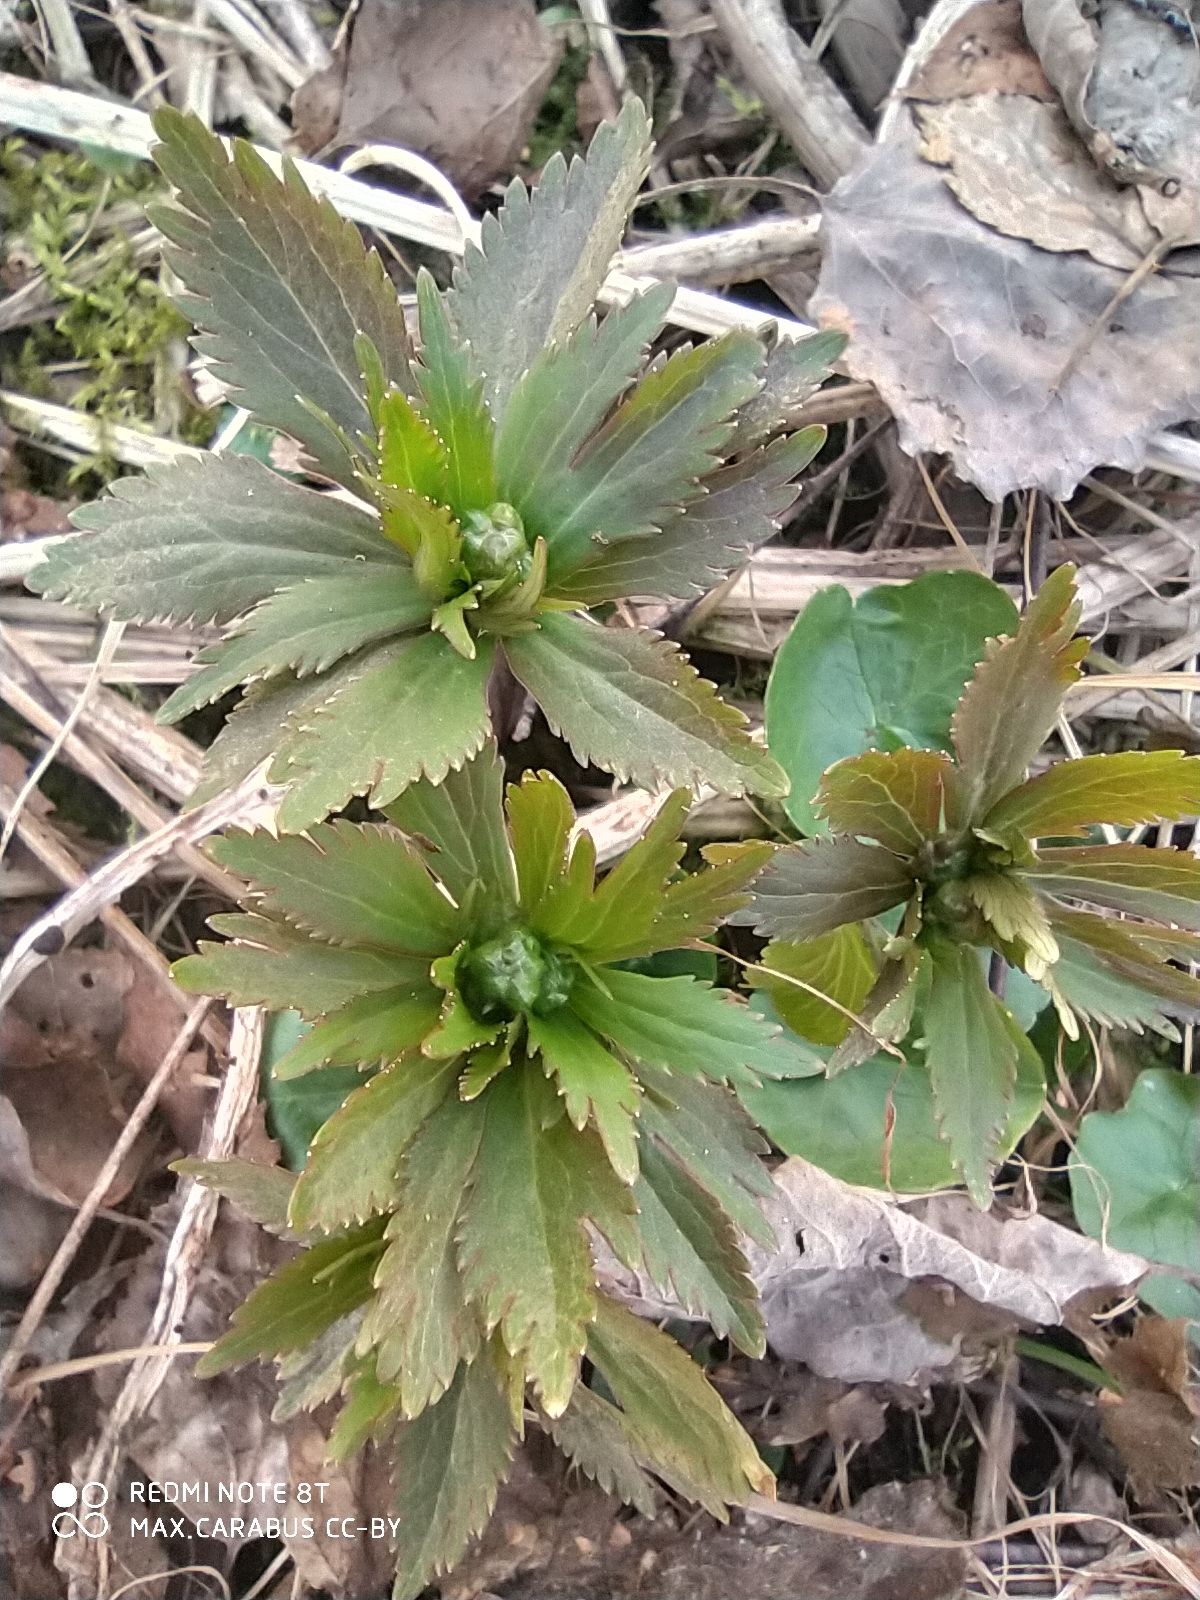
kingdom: Plantae
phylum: Tracheophyta
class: Magnoliopsida
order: Ranunculales
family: Ranunculaceae
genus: Ranunculus
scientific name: Ranunculus cassubicus
